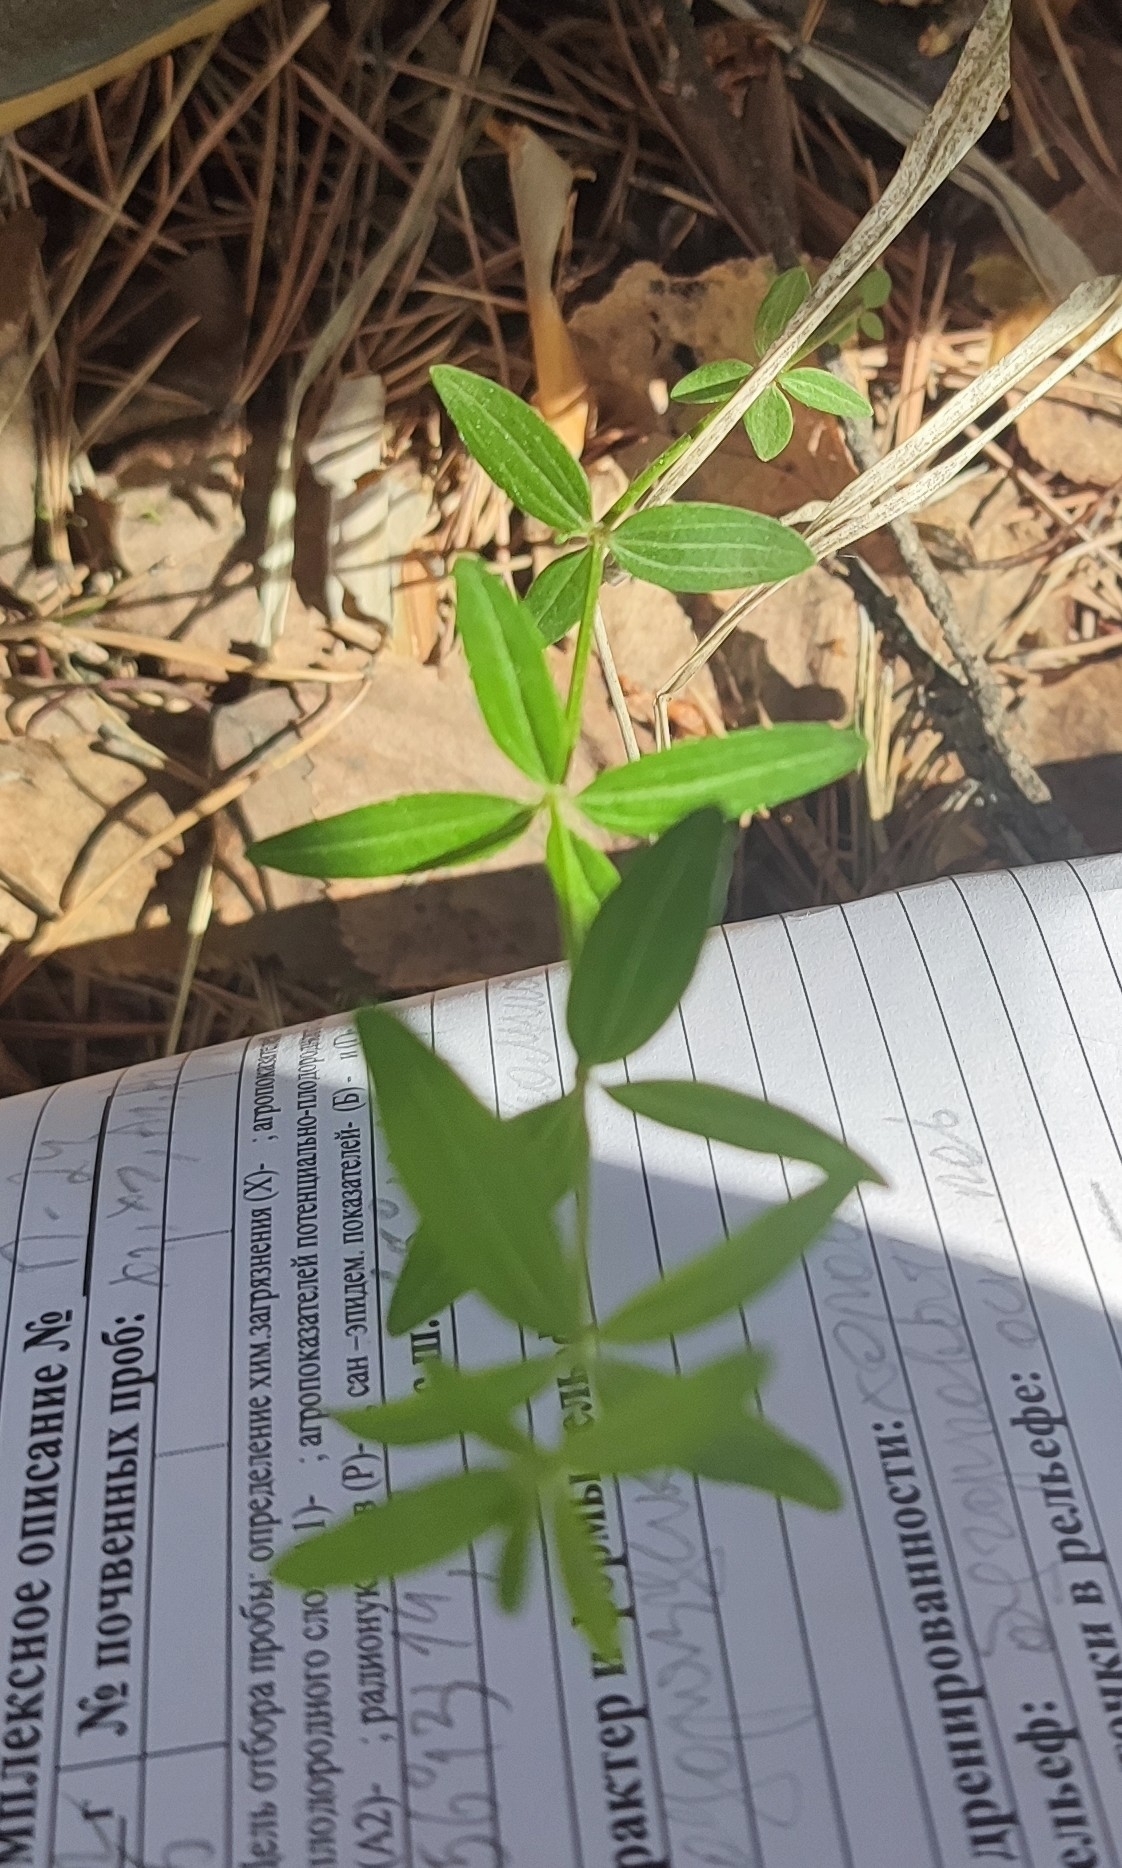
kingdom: Plantae
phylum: Tracheophyta
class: Magnoliopsida
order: Gentianales
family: Rubiaceae
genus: Galium
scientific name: Galium boreale
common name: Northern bedstraw
